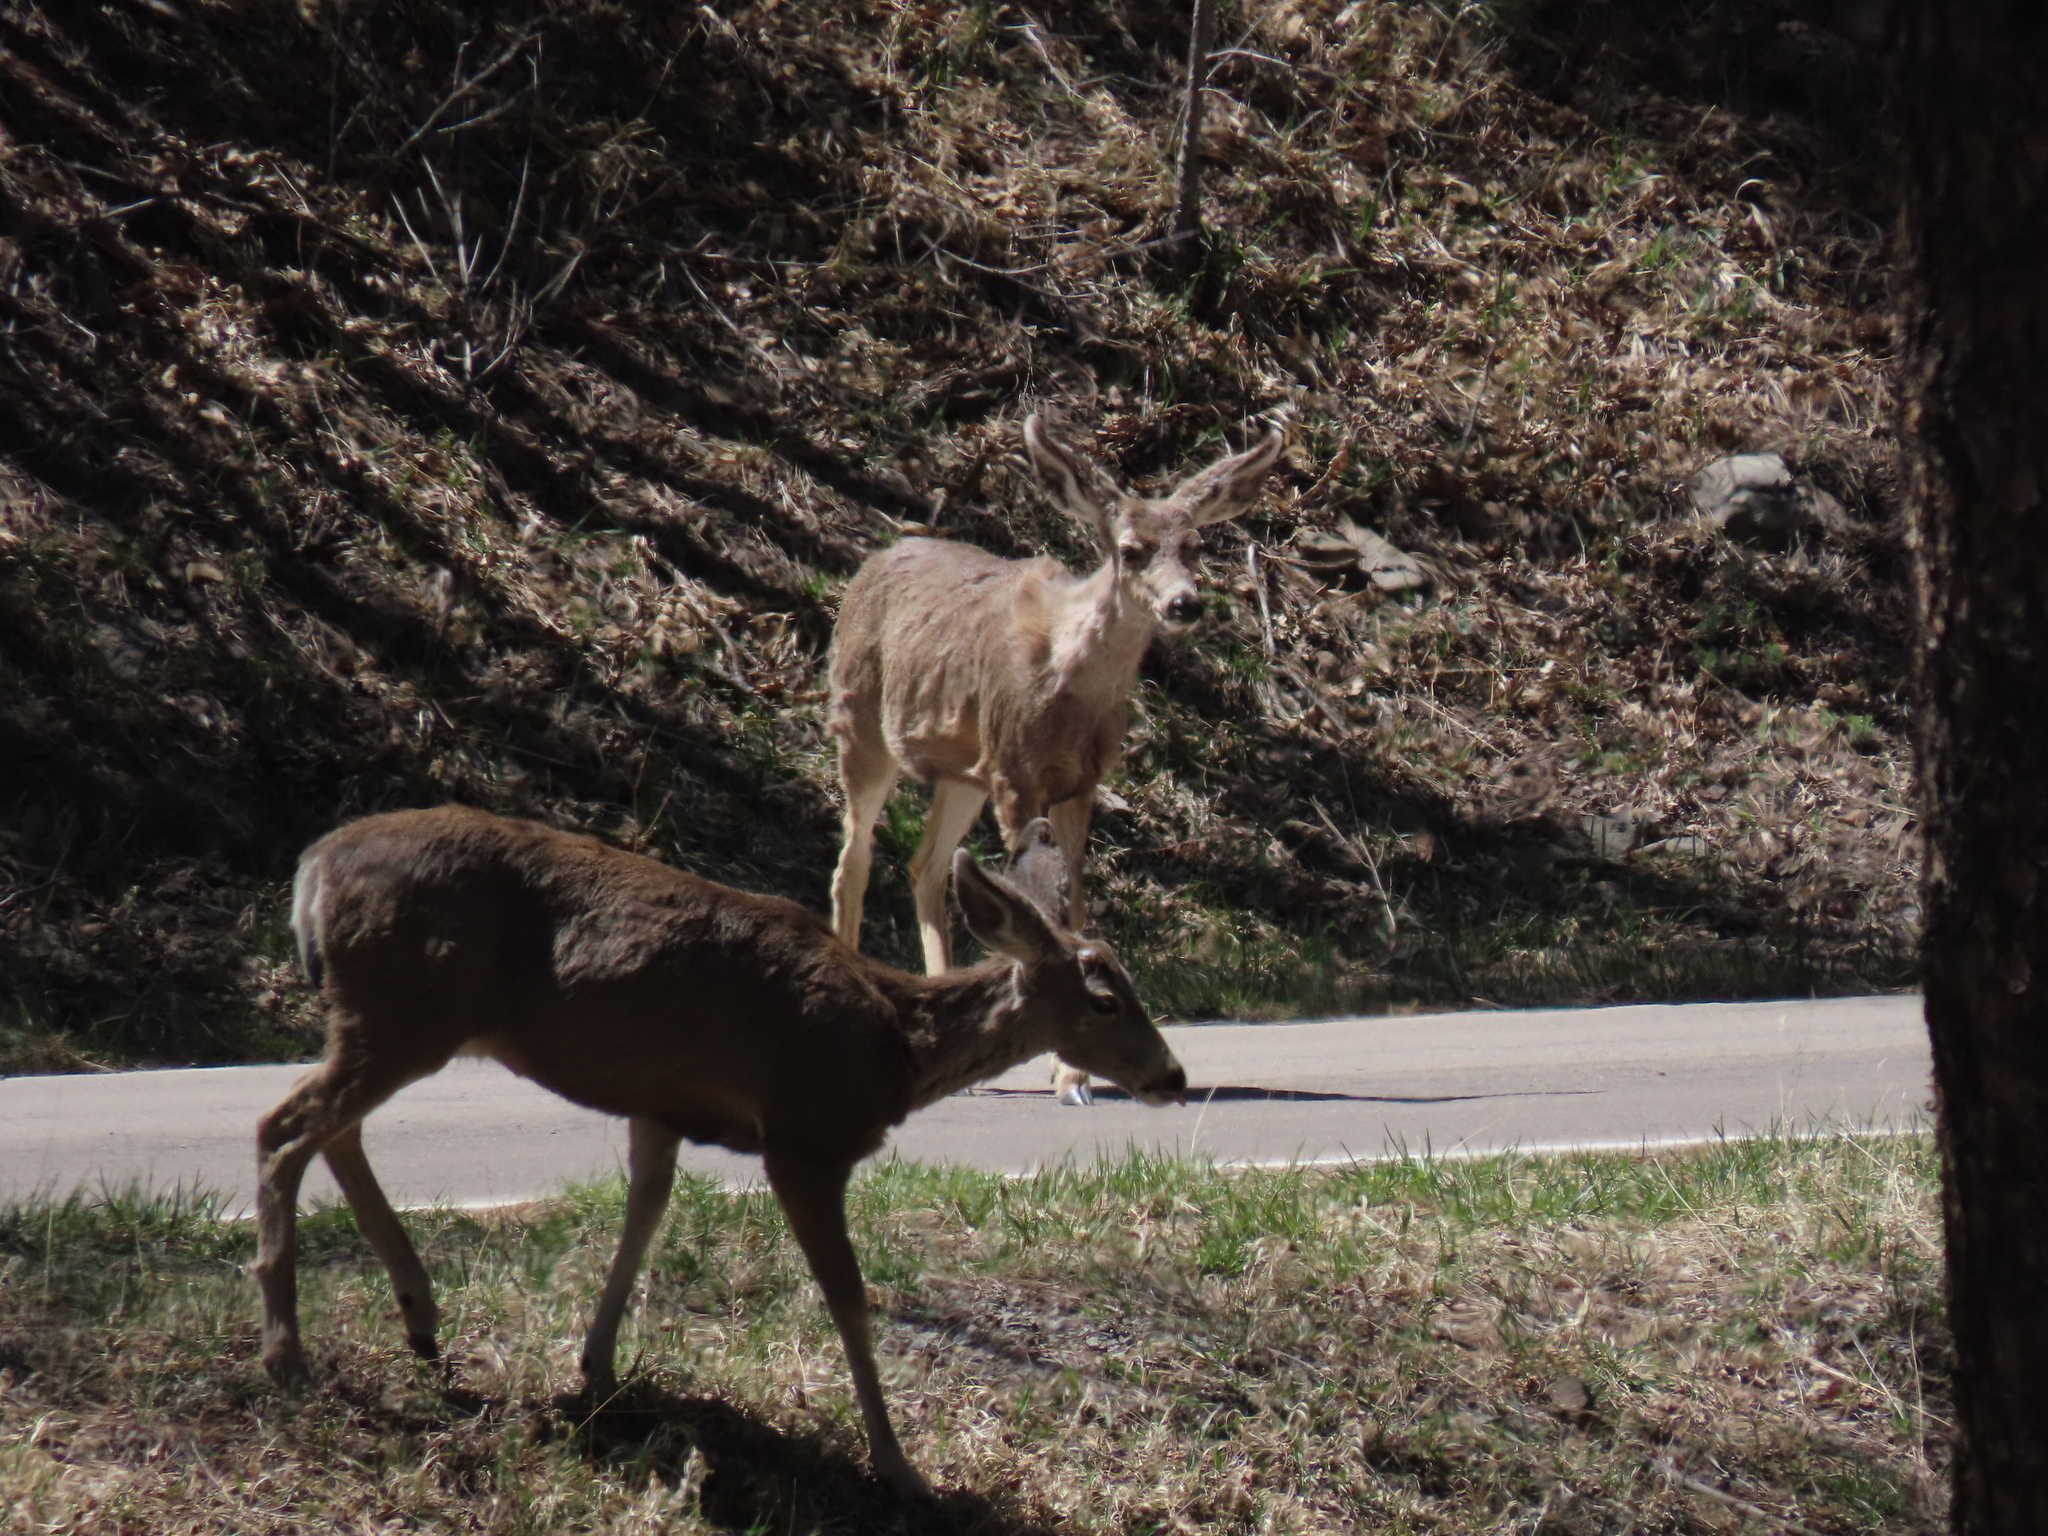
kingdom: Animalia
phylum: Chordata
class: Mammalia
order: Artiodactyla
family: Cervidae
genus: Odocoileus
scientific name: Odocoileus hemionus
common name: Mule deer
